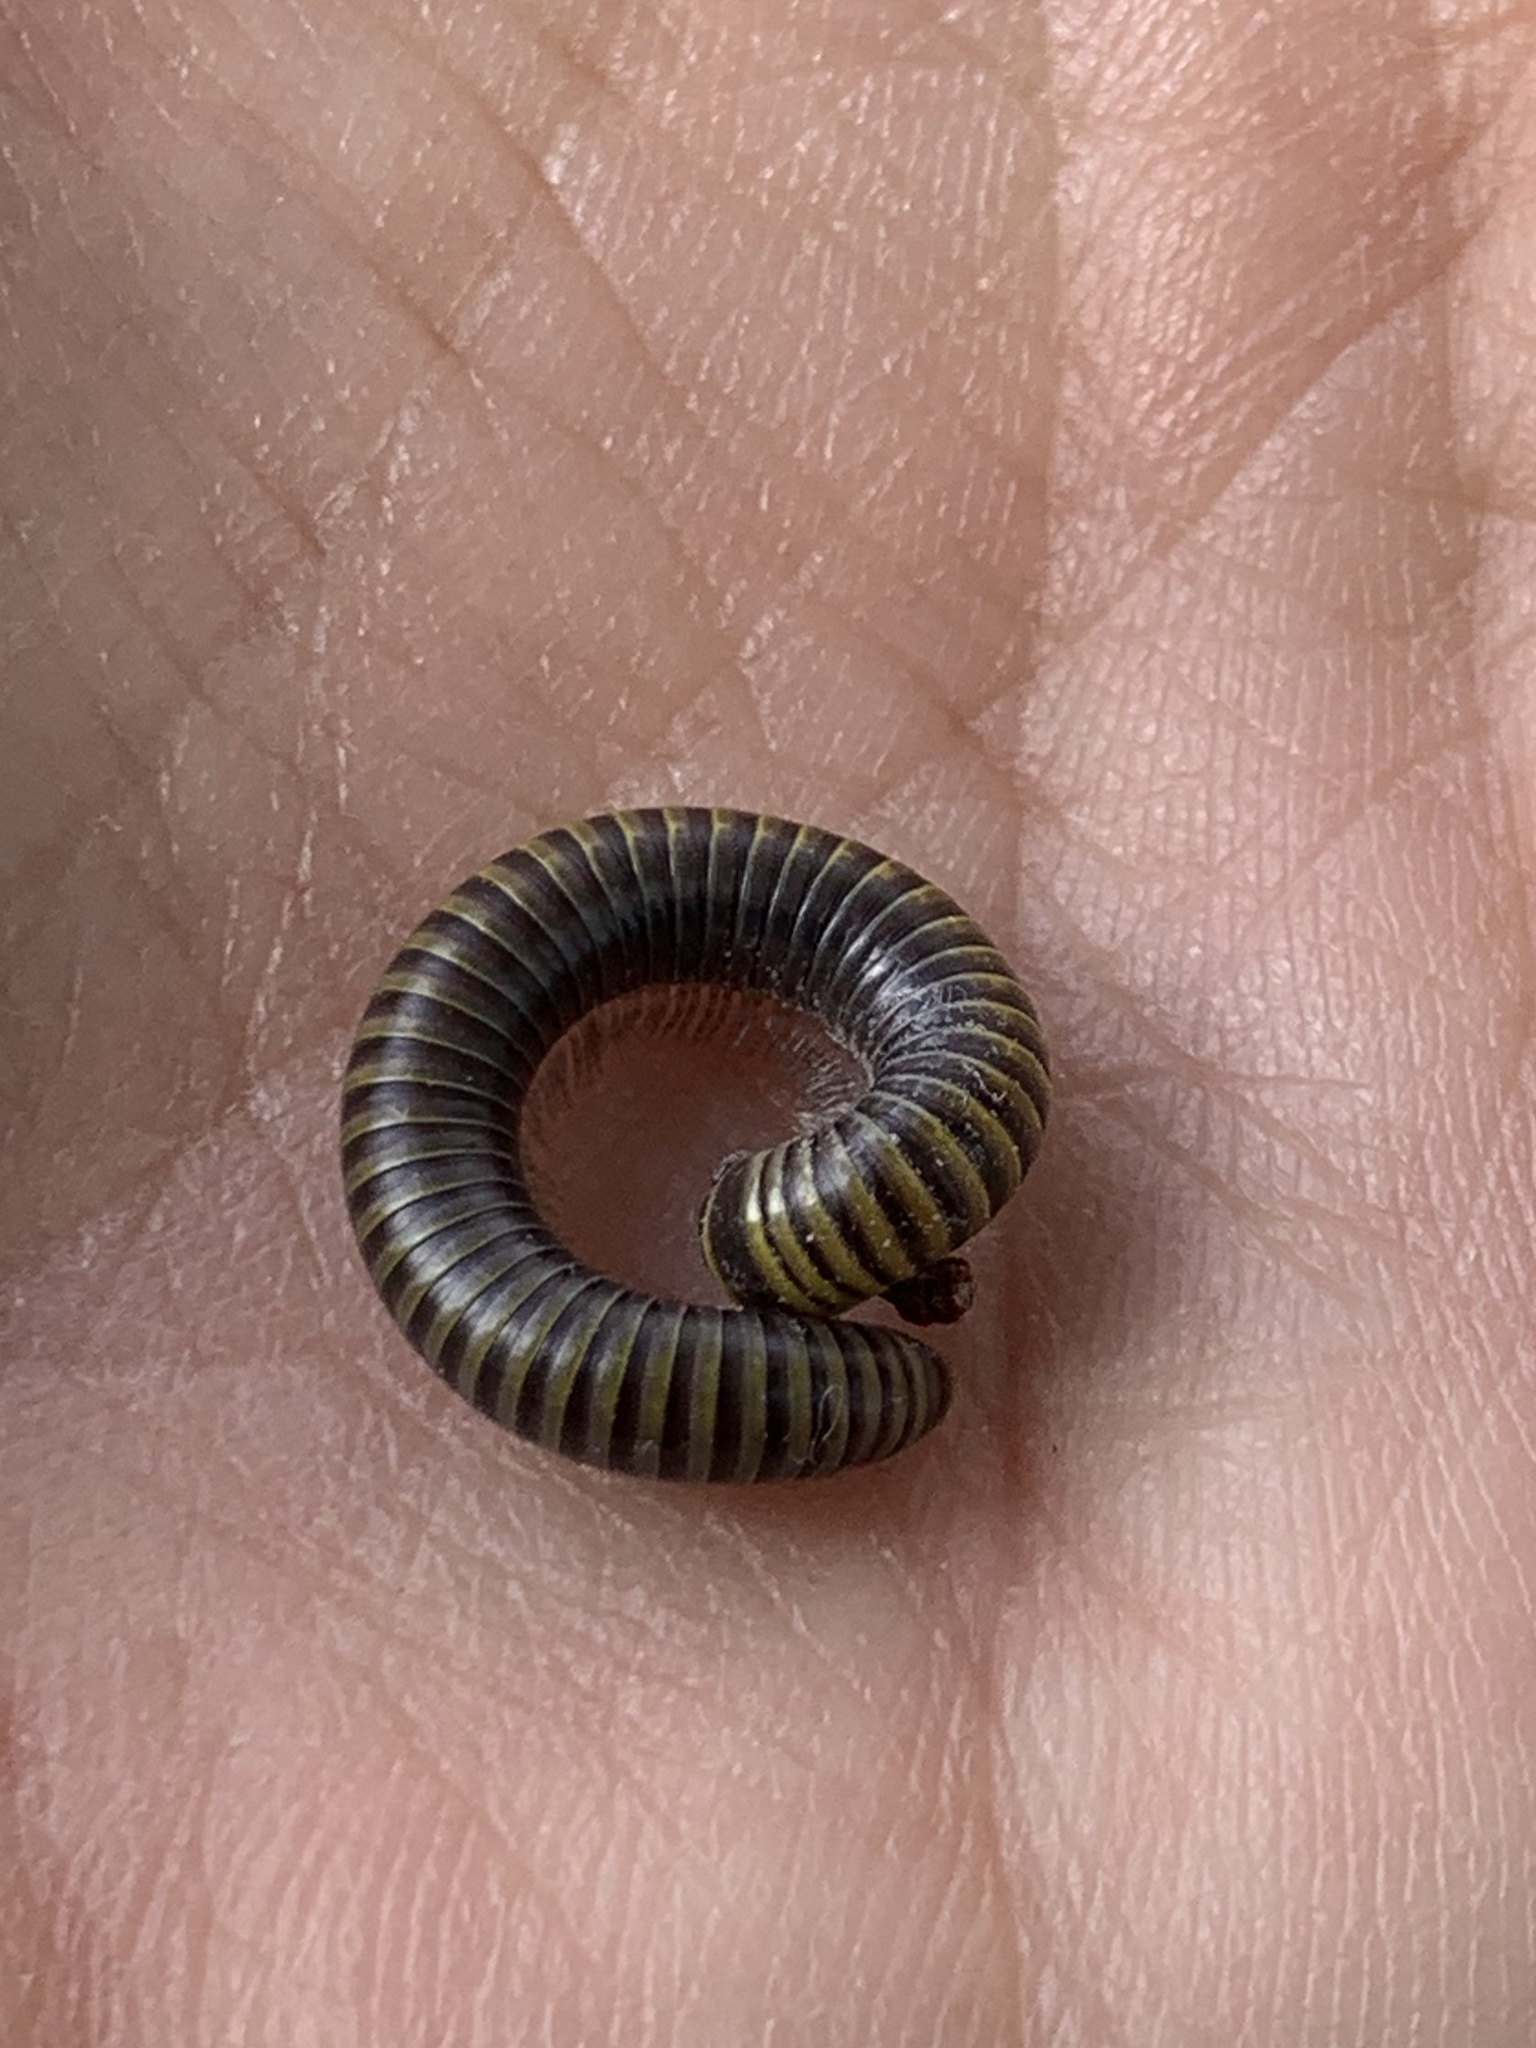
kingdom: Animalia
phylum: Arthropoda
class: Diplopoda
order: Spirobolida
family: Rhinocricidae
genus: Anadenobolus
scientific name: Anadenobolus monilicornis
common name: Caribbean millipede
